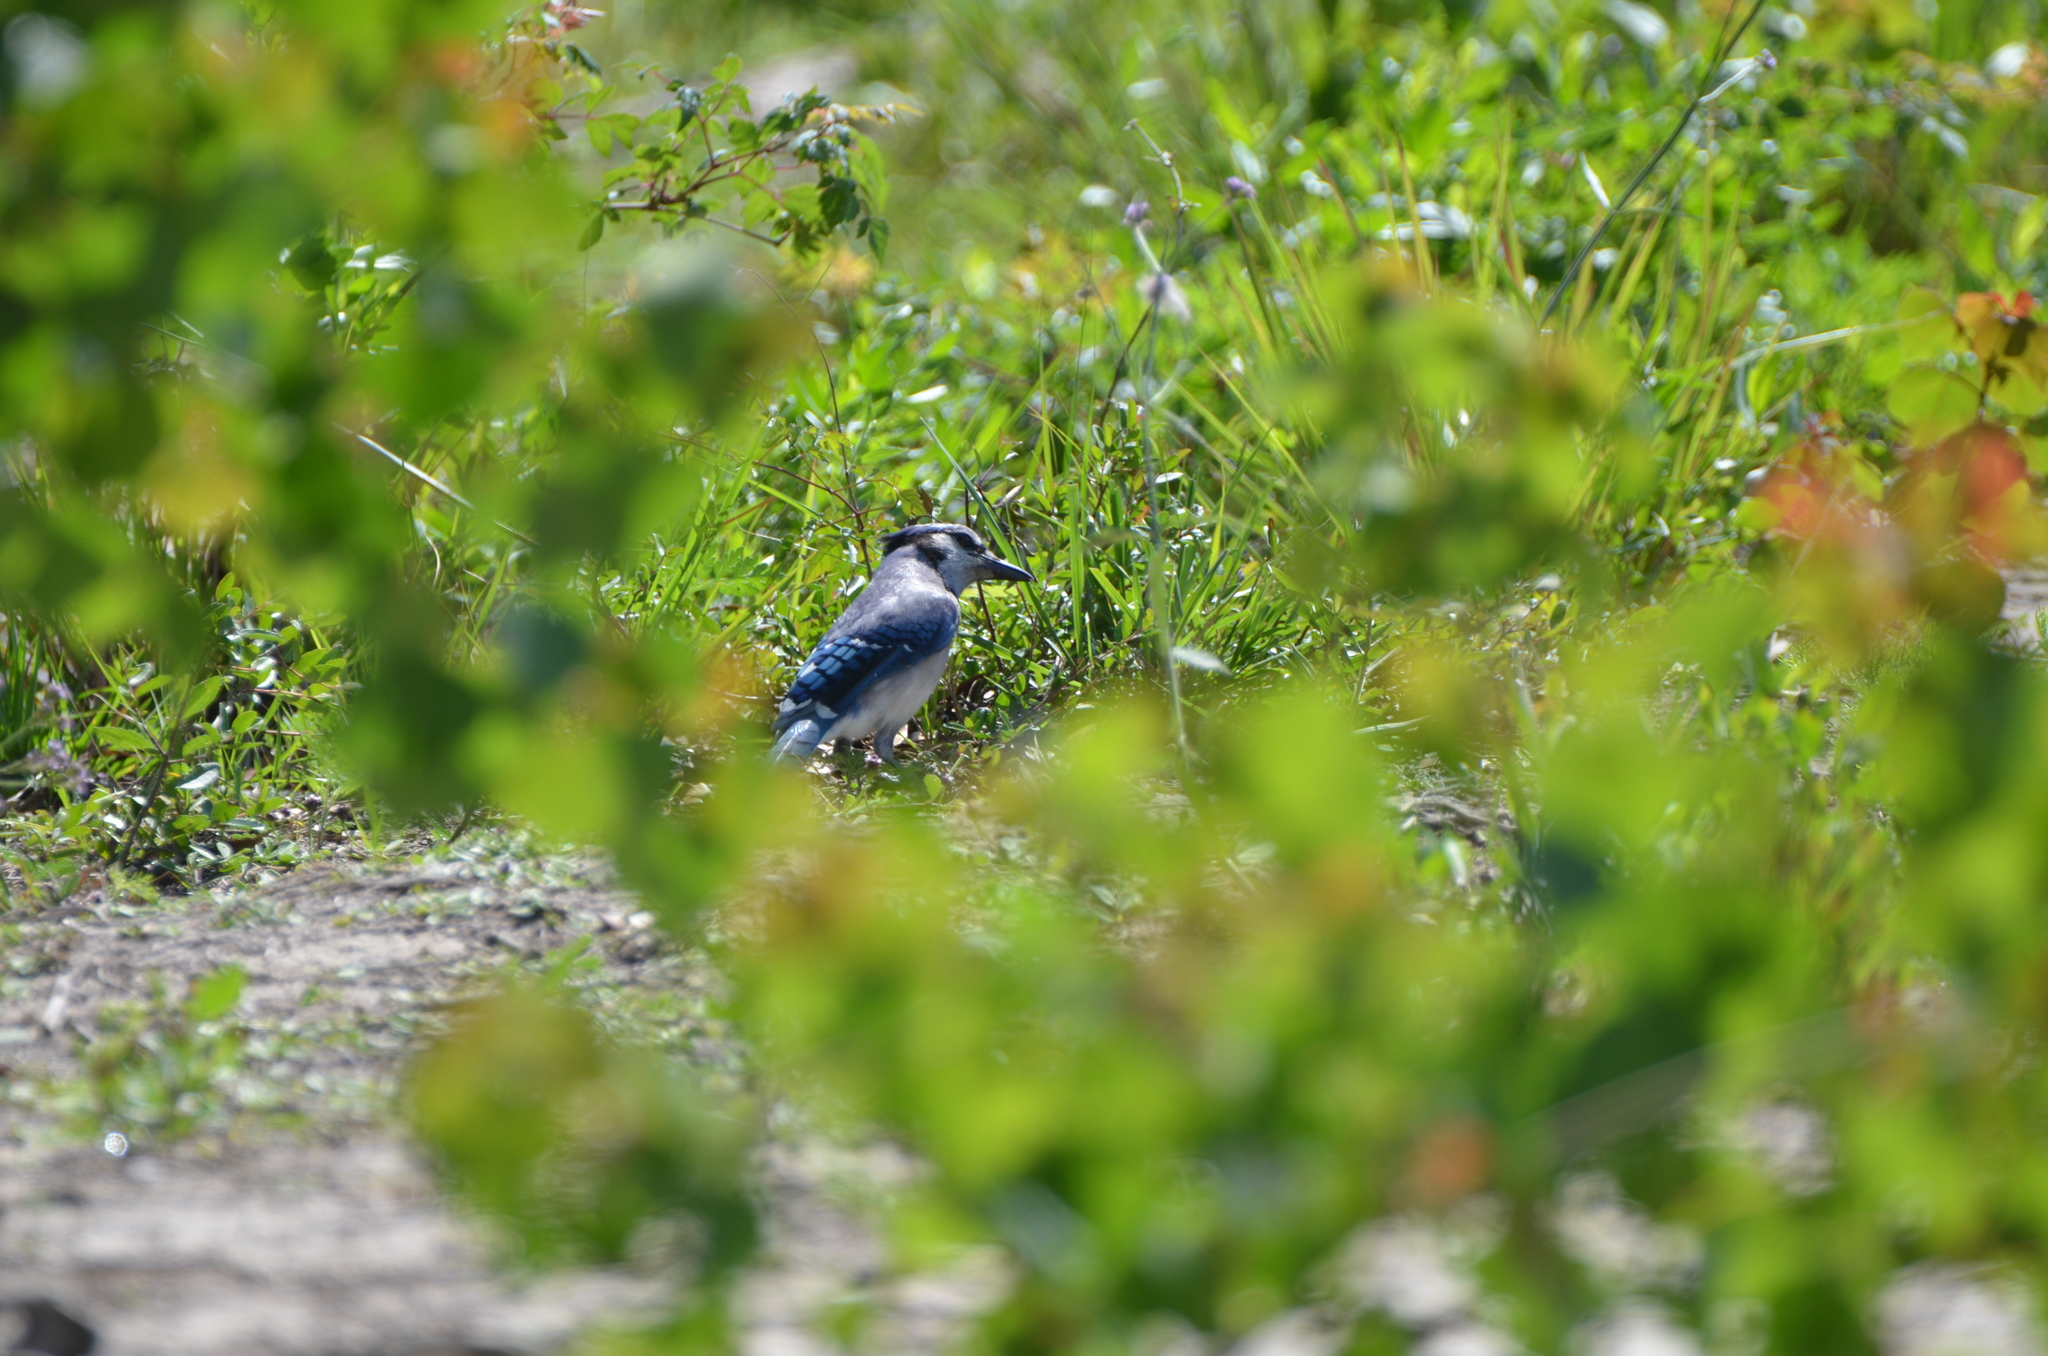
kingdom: Animalia
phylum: Chordata
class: Aves
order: Passeriformes
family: Corvidae
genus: Cyanocitta
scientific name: Cyanocitta cristata
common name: Blue jay
